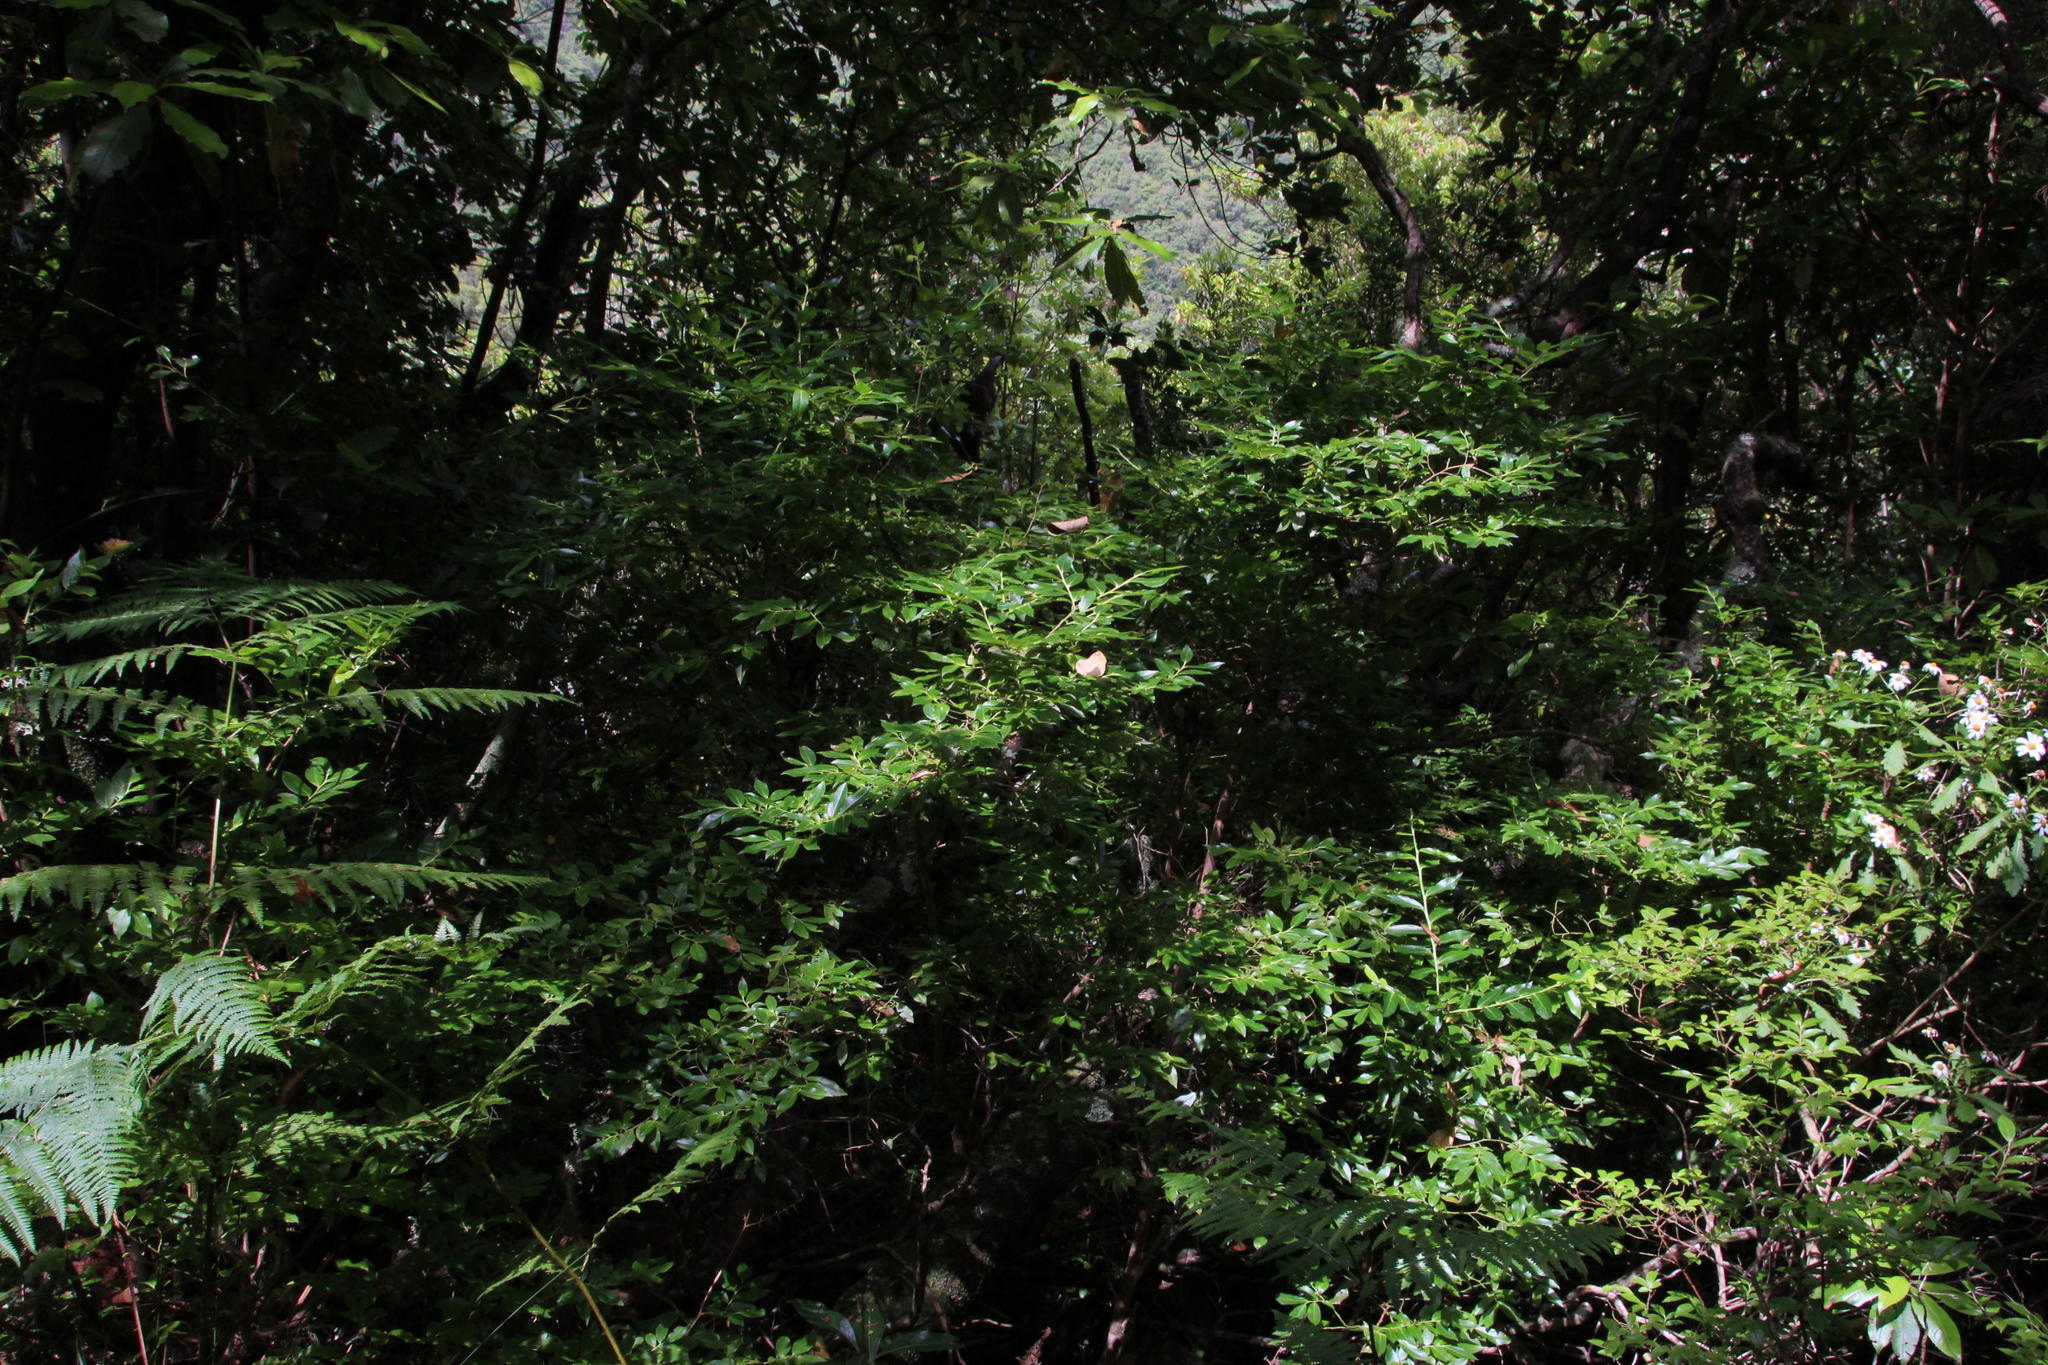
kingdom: Plantae
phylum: Tracheophyta
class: Magnoliopsida
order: Ericales
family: Ericaceae
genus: Vaccinium
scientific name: Vaccinium padifolium
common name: Madeiran blueberry
